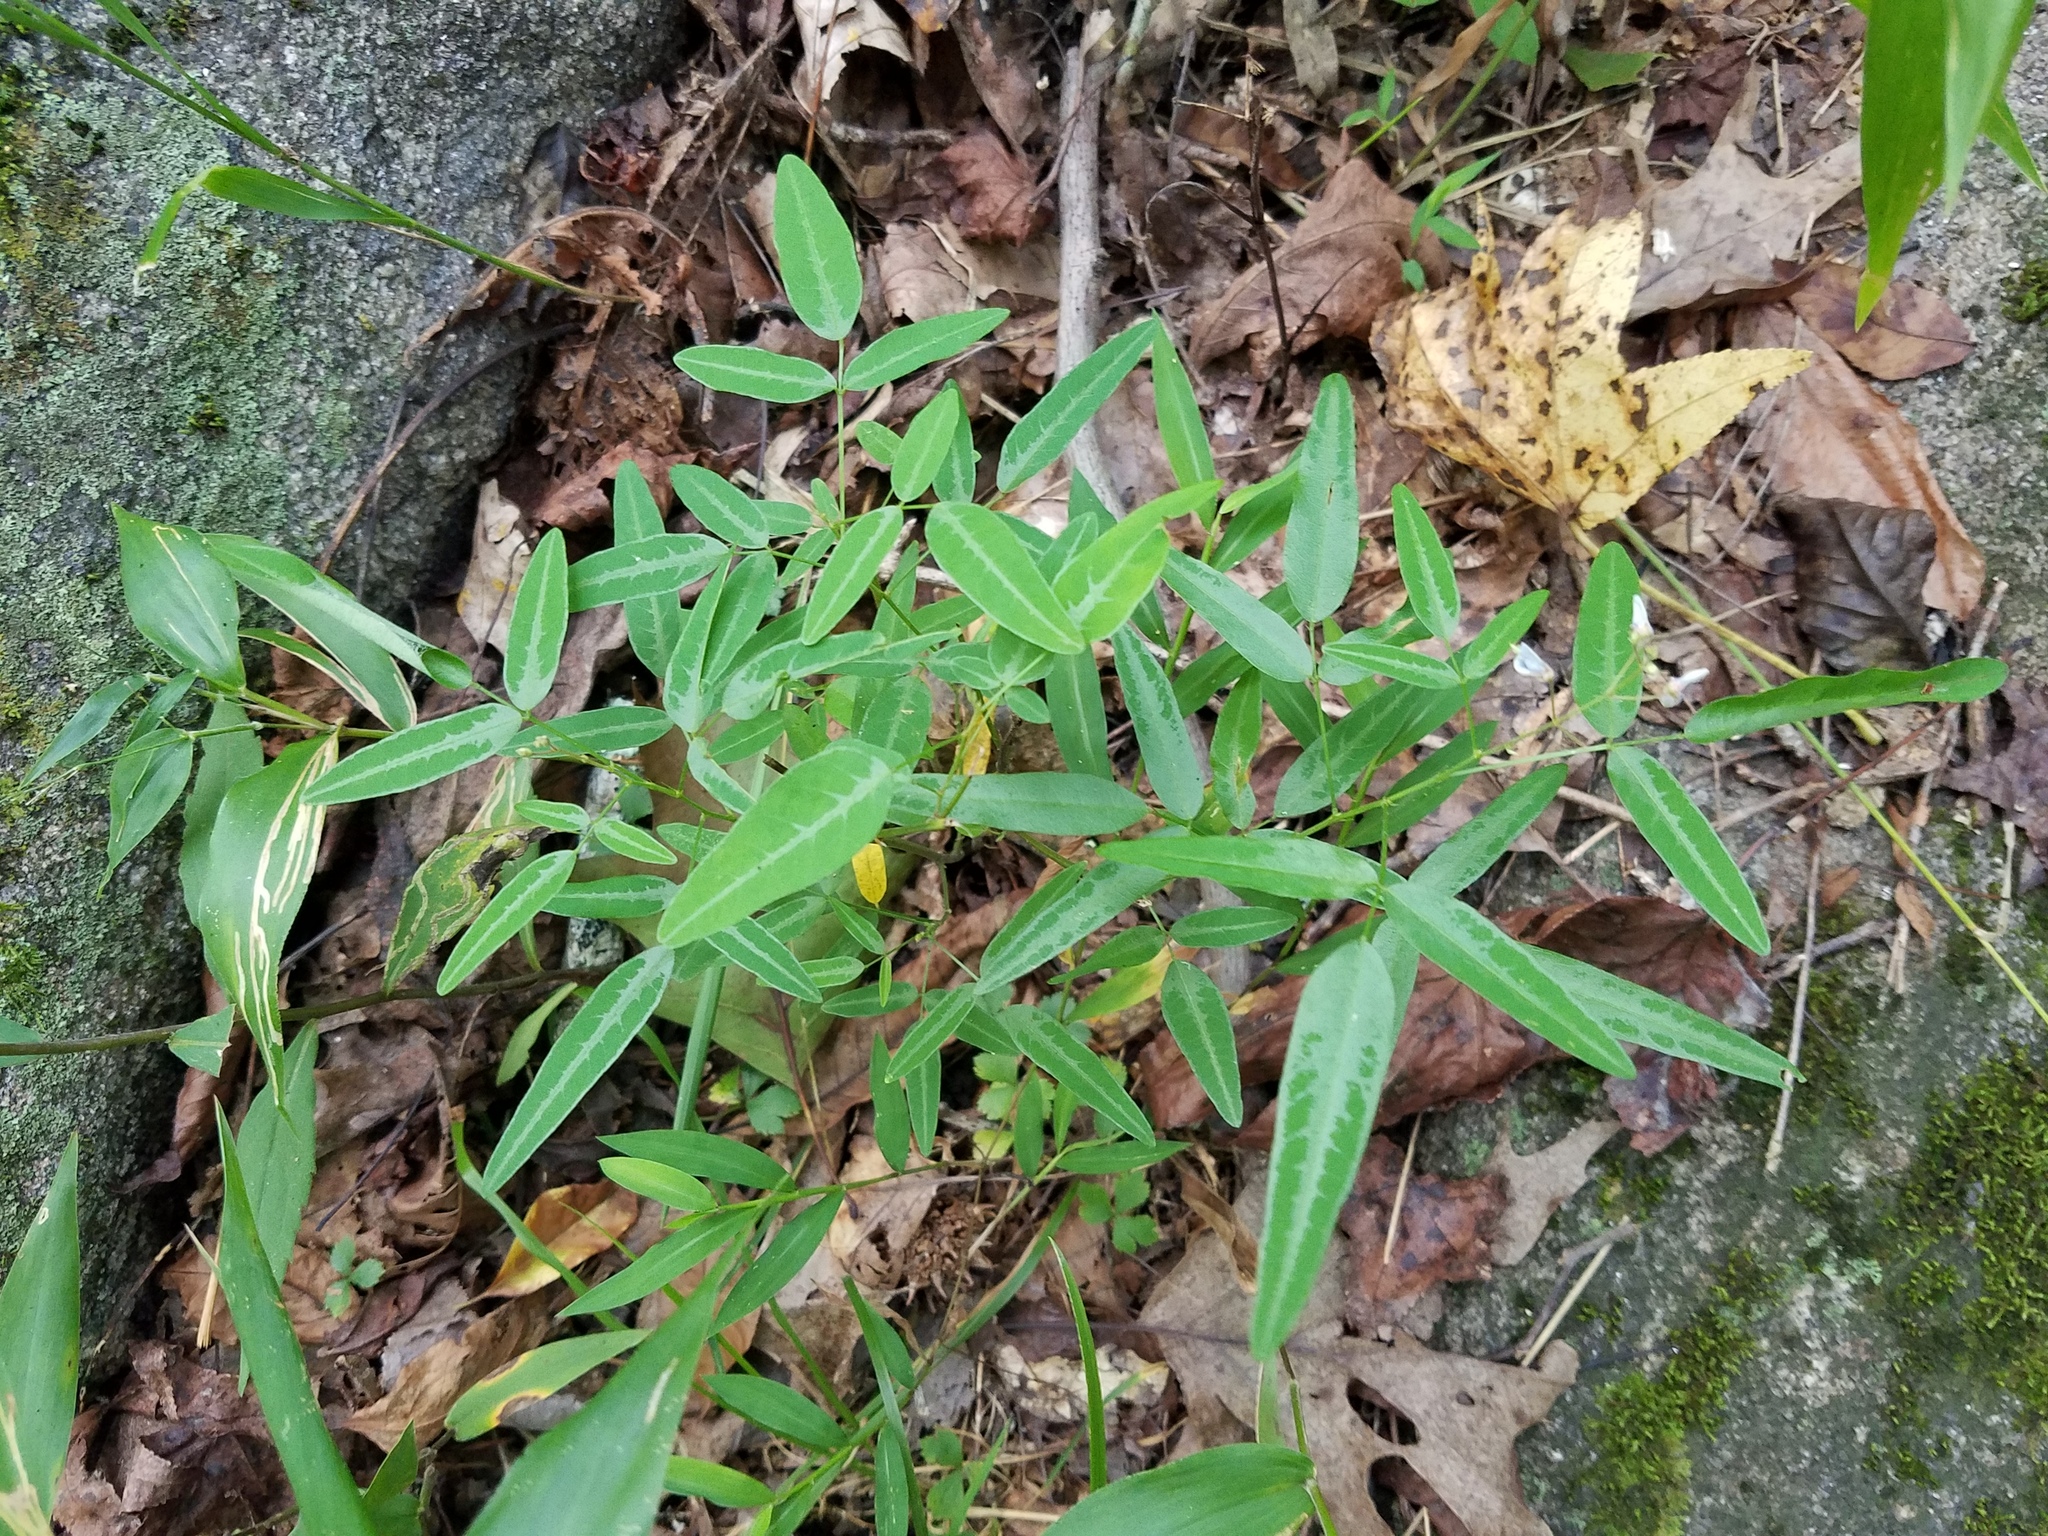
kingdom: Plantae
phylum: Tracheophyta
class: Magnoliopsida
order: Fabales
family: Fabaceae
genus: Desmodium
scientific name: Desmodium paniculatum
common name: Panicled tick-clover
